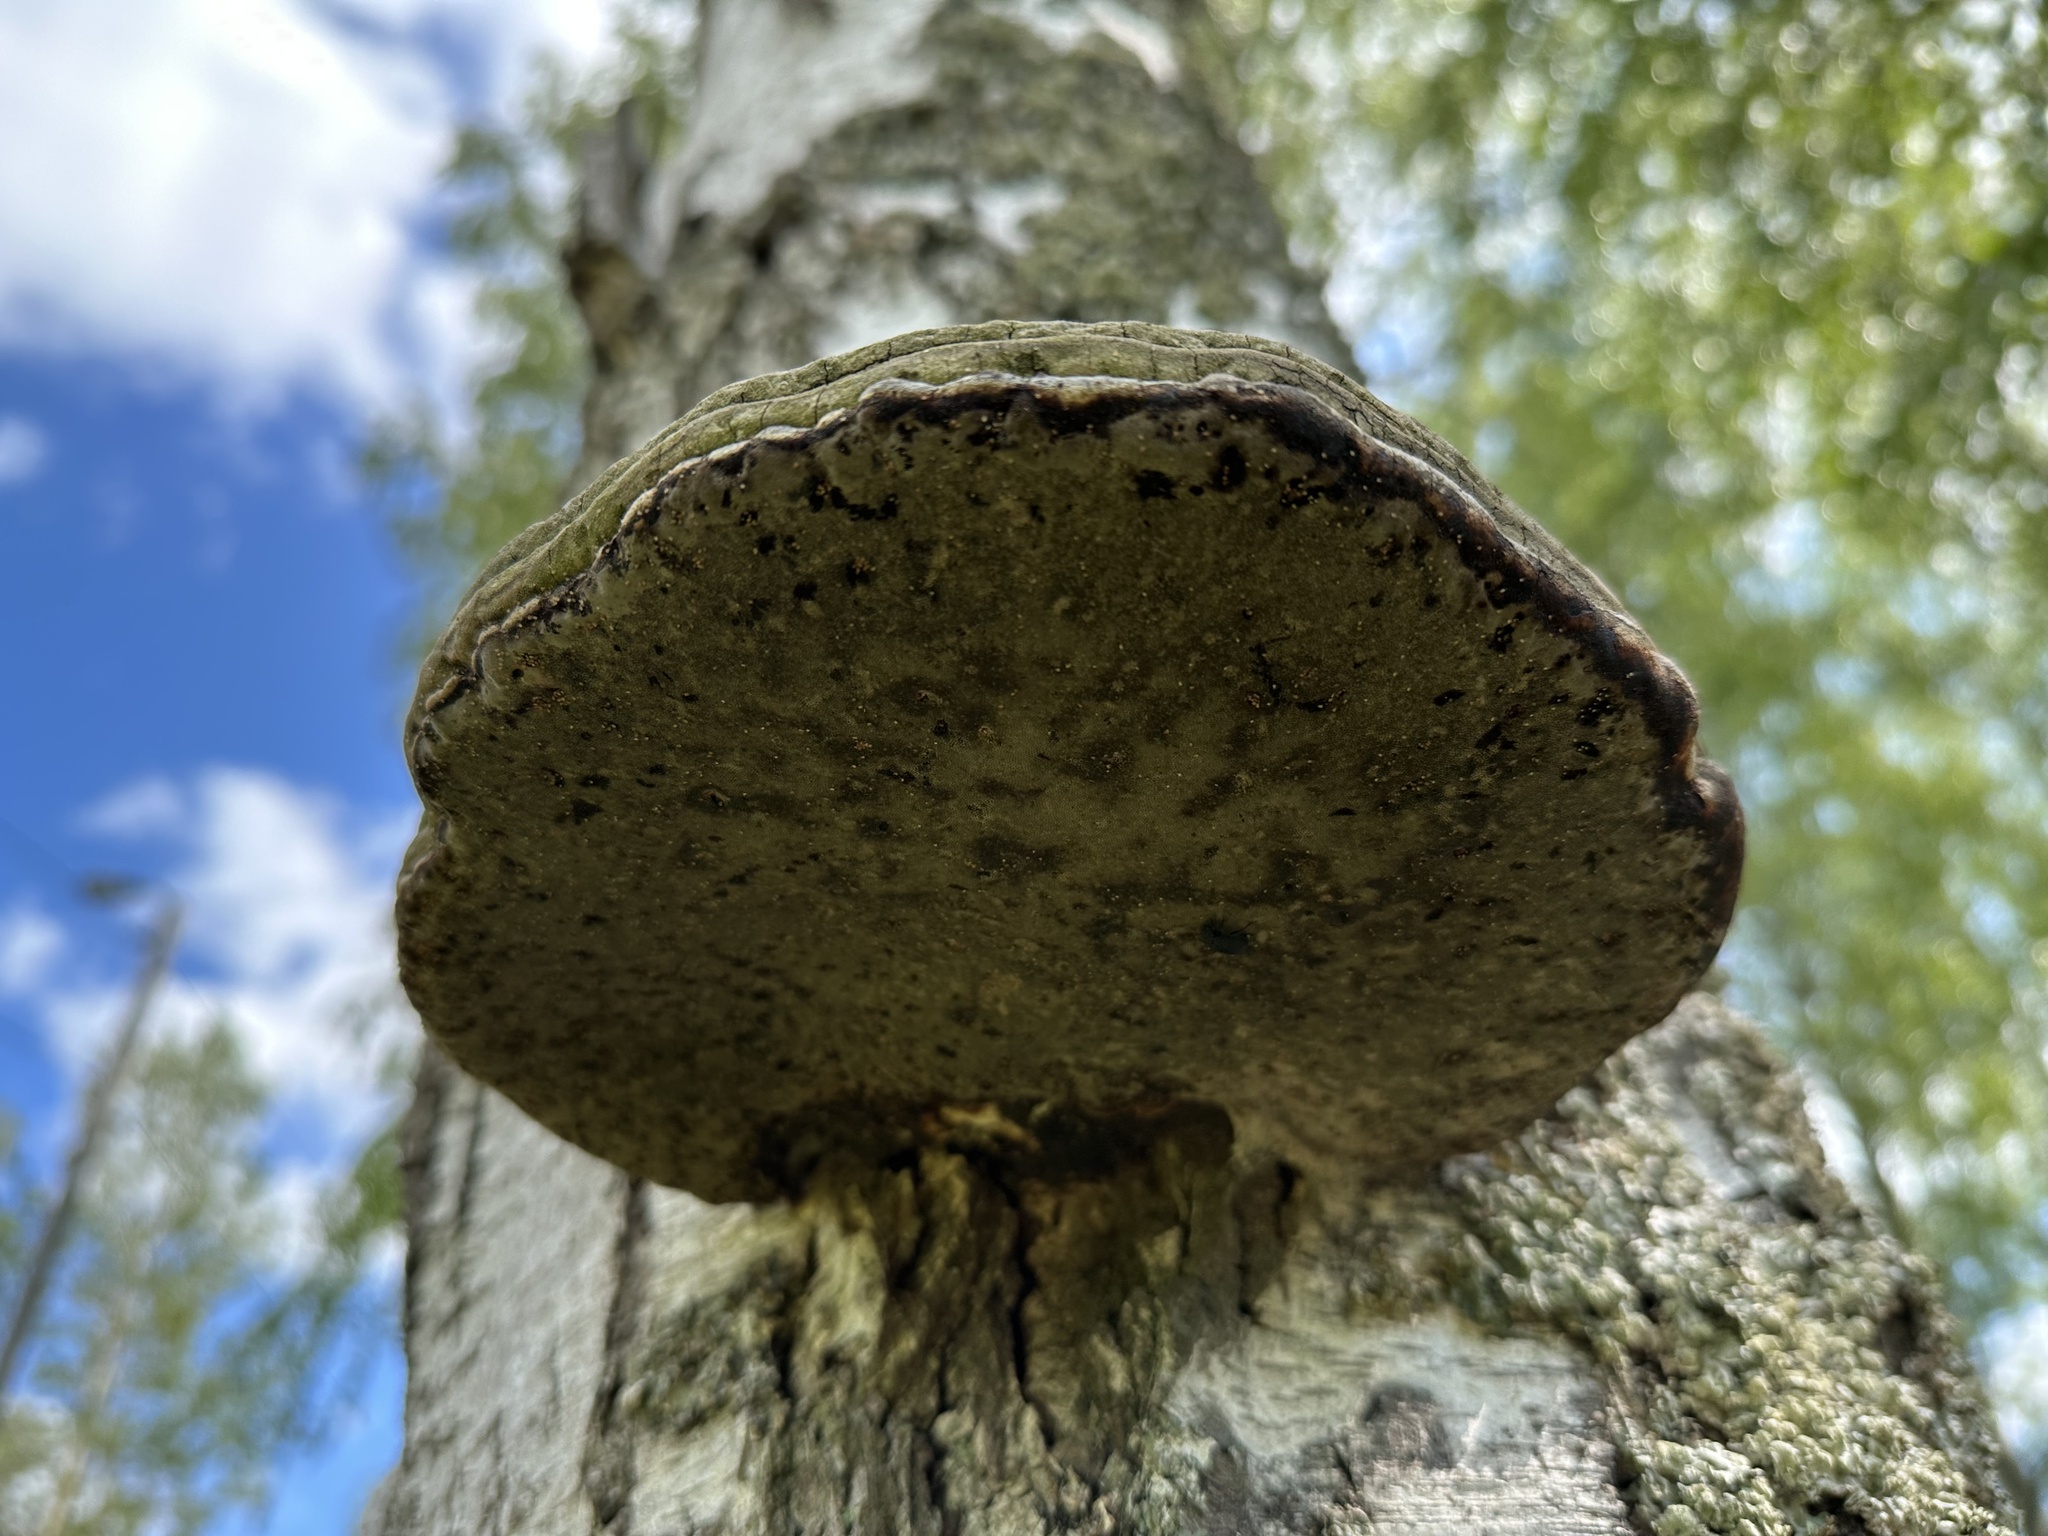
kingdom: Fungi
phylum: Basidiomycota
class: Agaricomycetes
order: Polyporales
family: Polyporaceae
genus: Fomes
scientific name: Fomes fomentarius
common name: Hoof fungus
